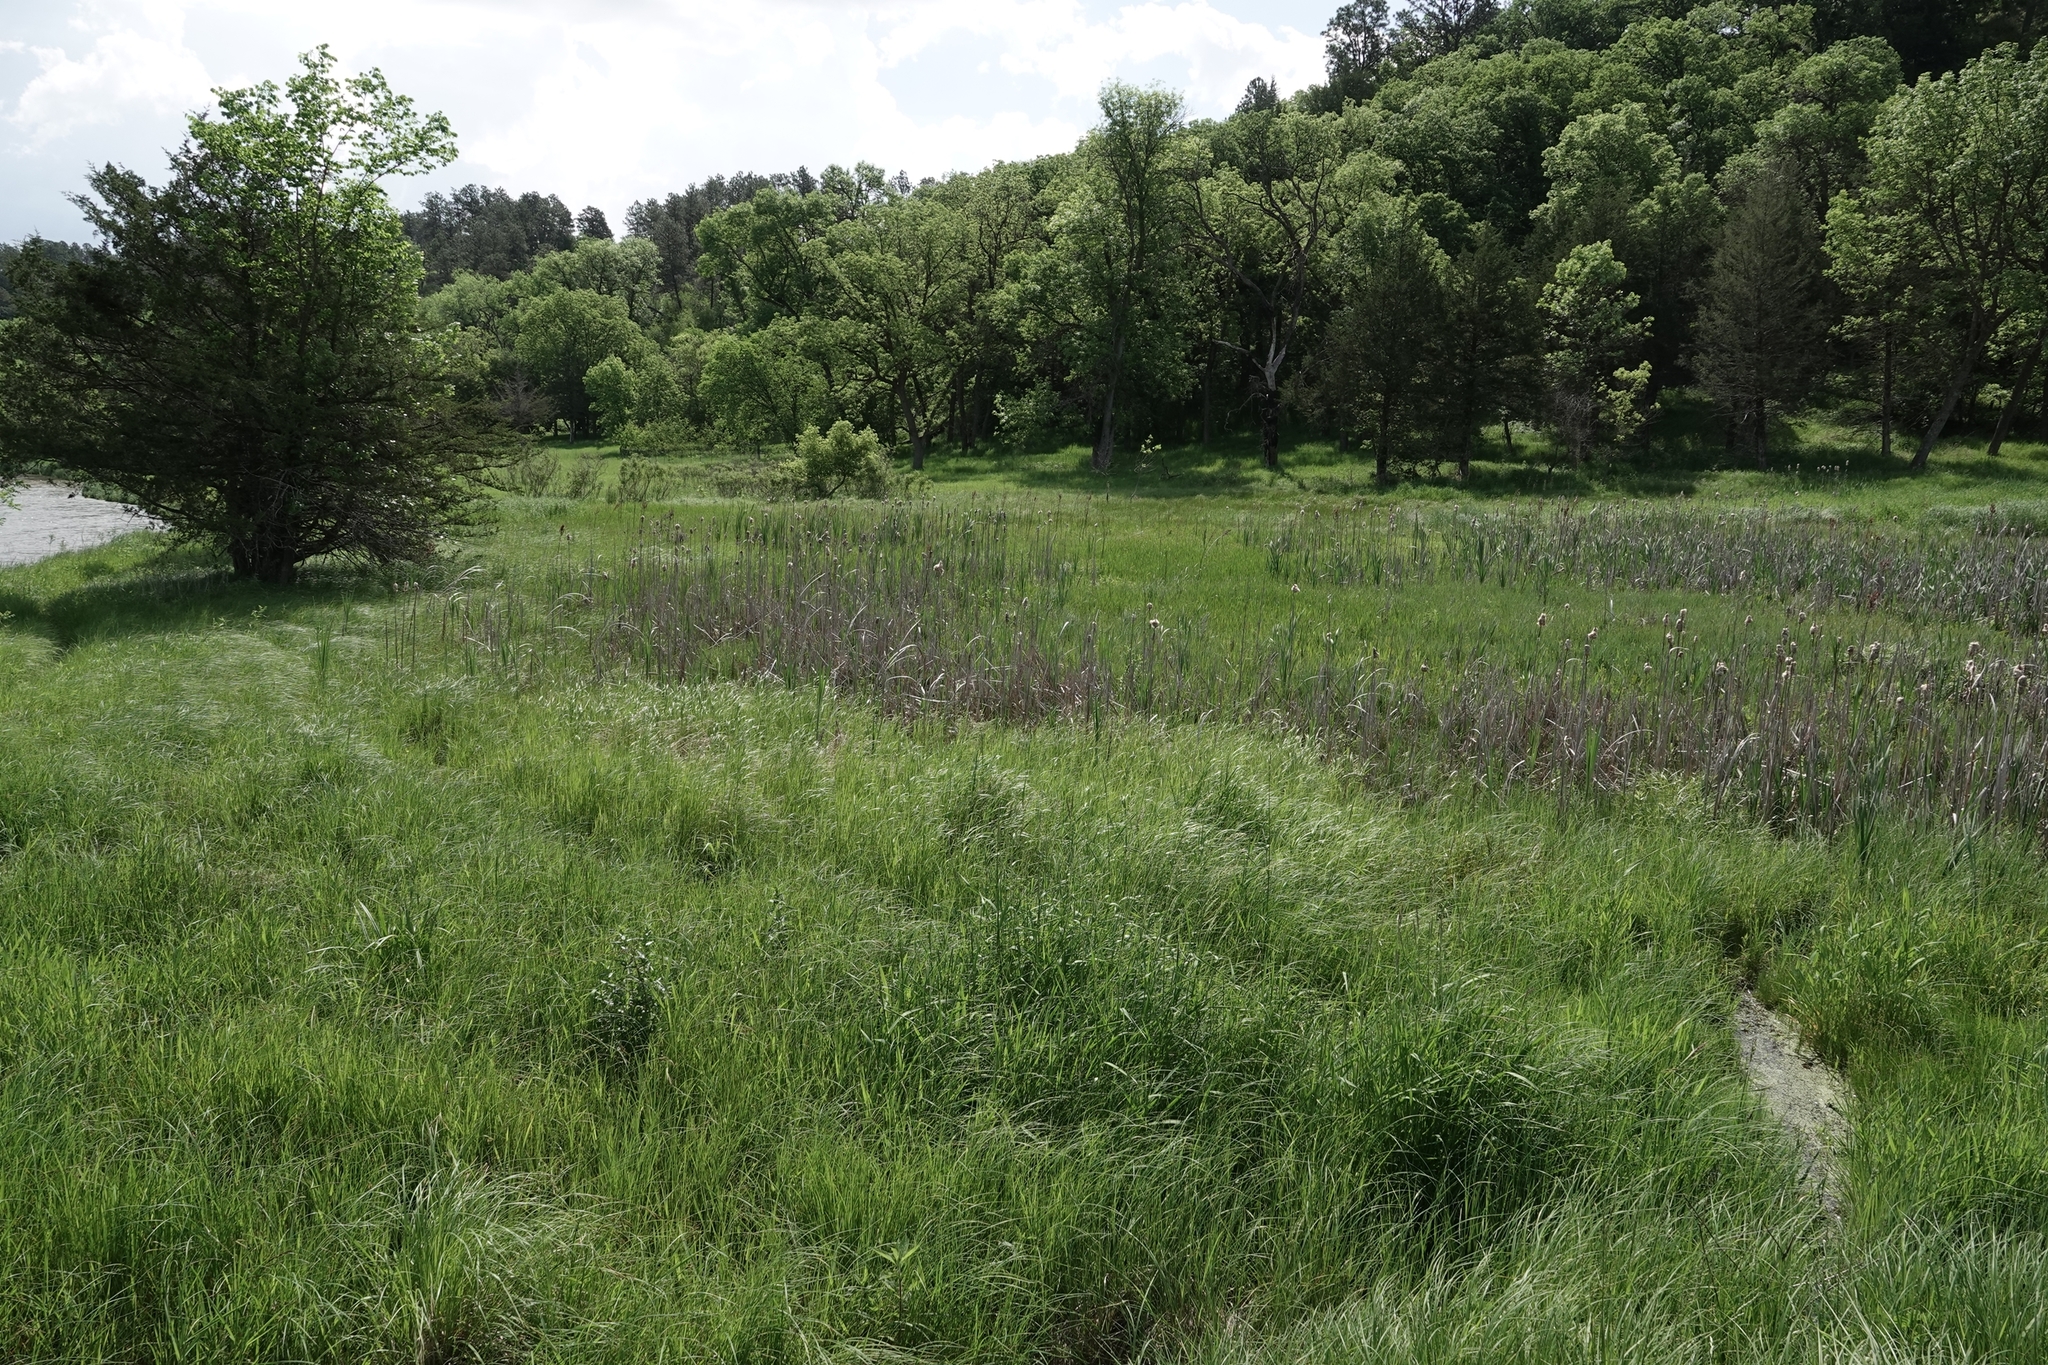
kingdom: Plantae
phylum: Tracheophyta
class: Liliopsida
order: Poales
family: Typhaceae
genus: Typha
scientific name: Typha latifolia
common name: Broadleaf cattail
